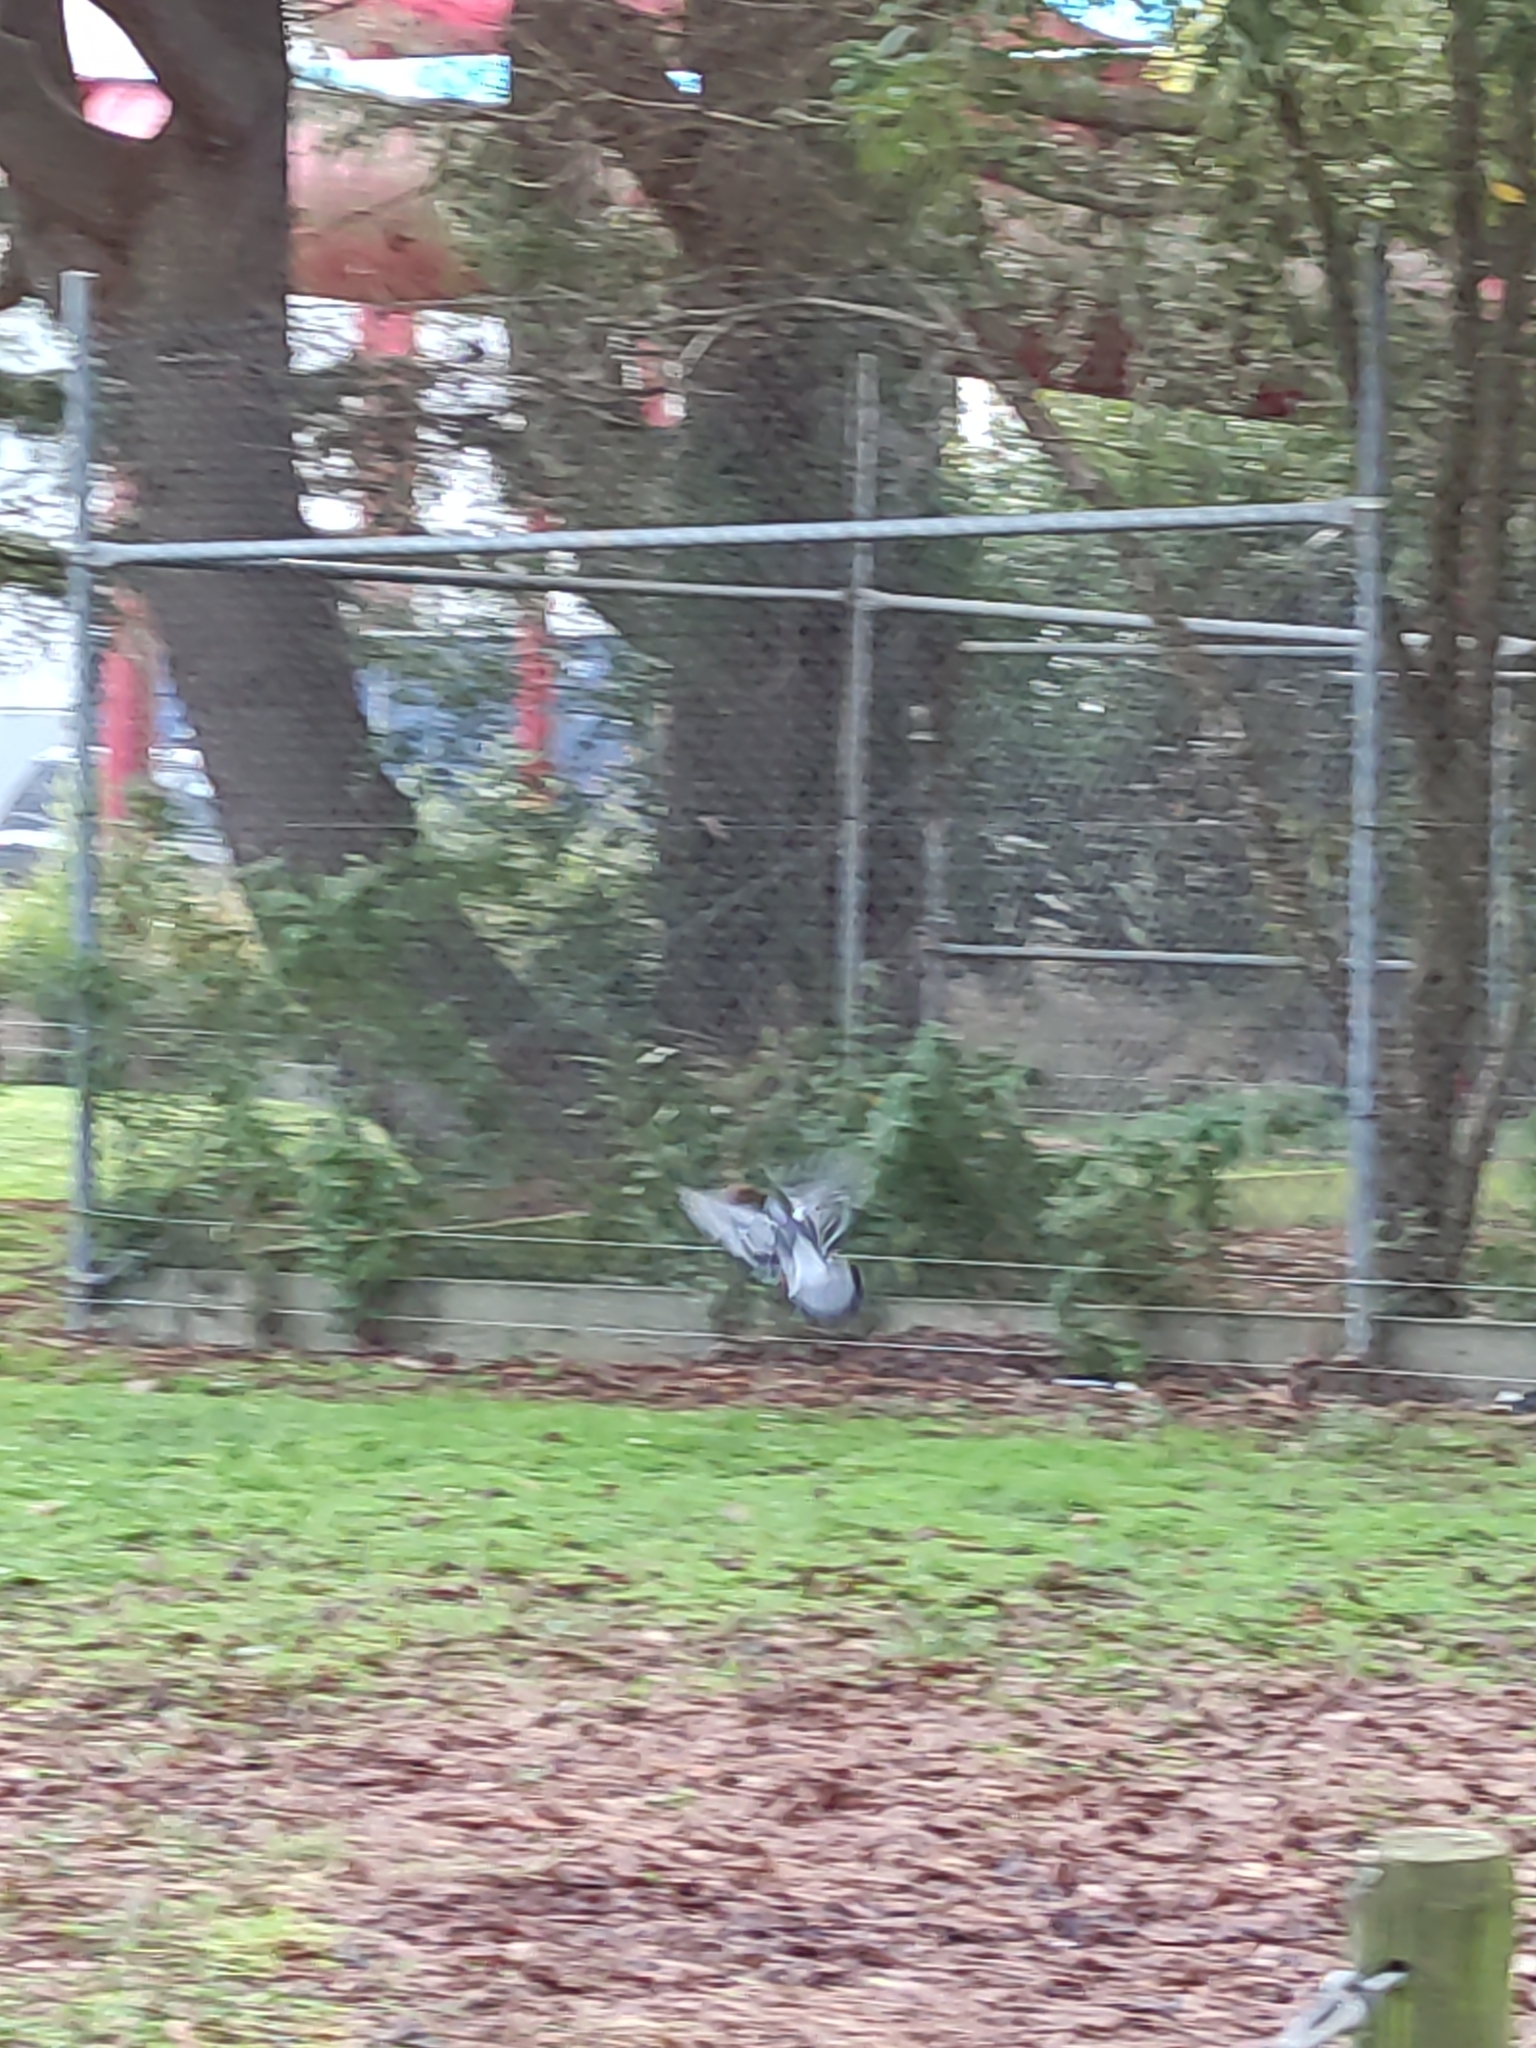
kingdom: Animalia
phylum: Chordata
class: Aves
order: Columbiformes
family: Columbidae
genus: Columba
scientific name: Columba livia
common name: Rock pigeon
